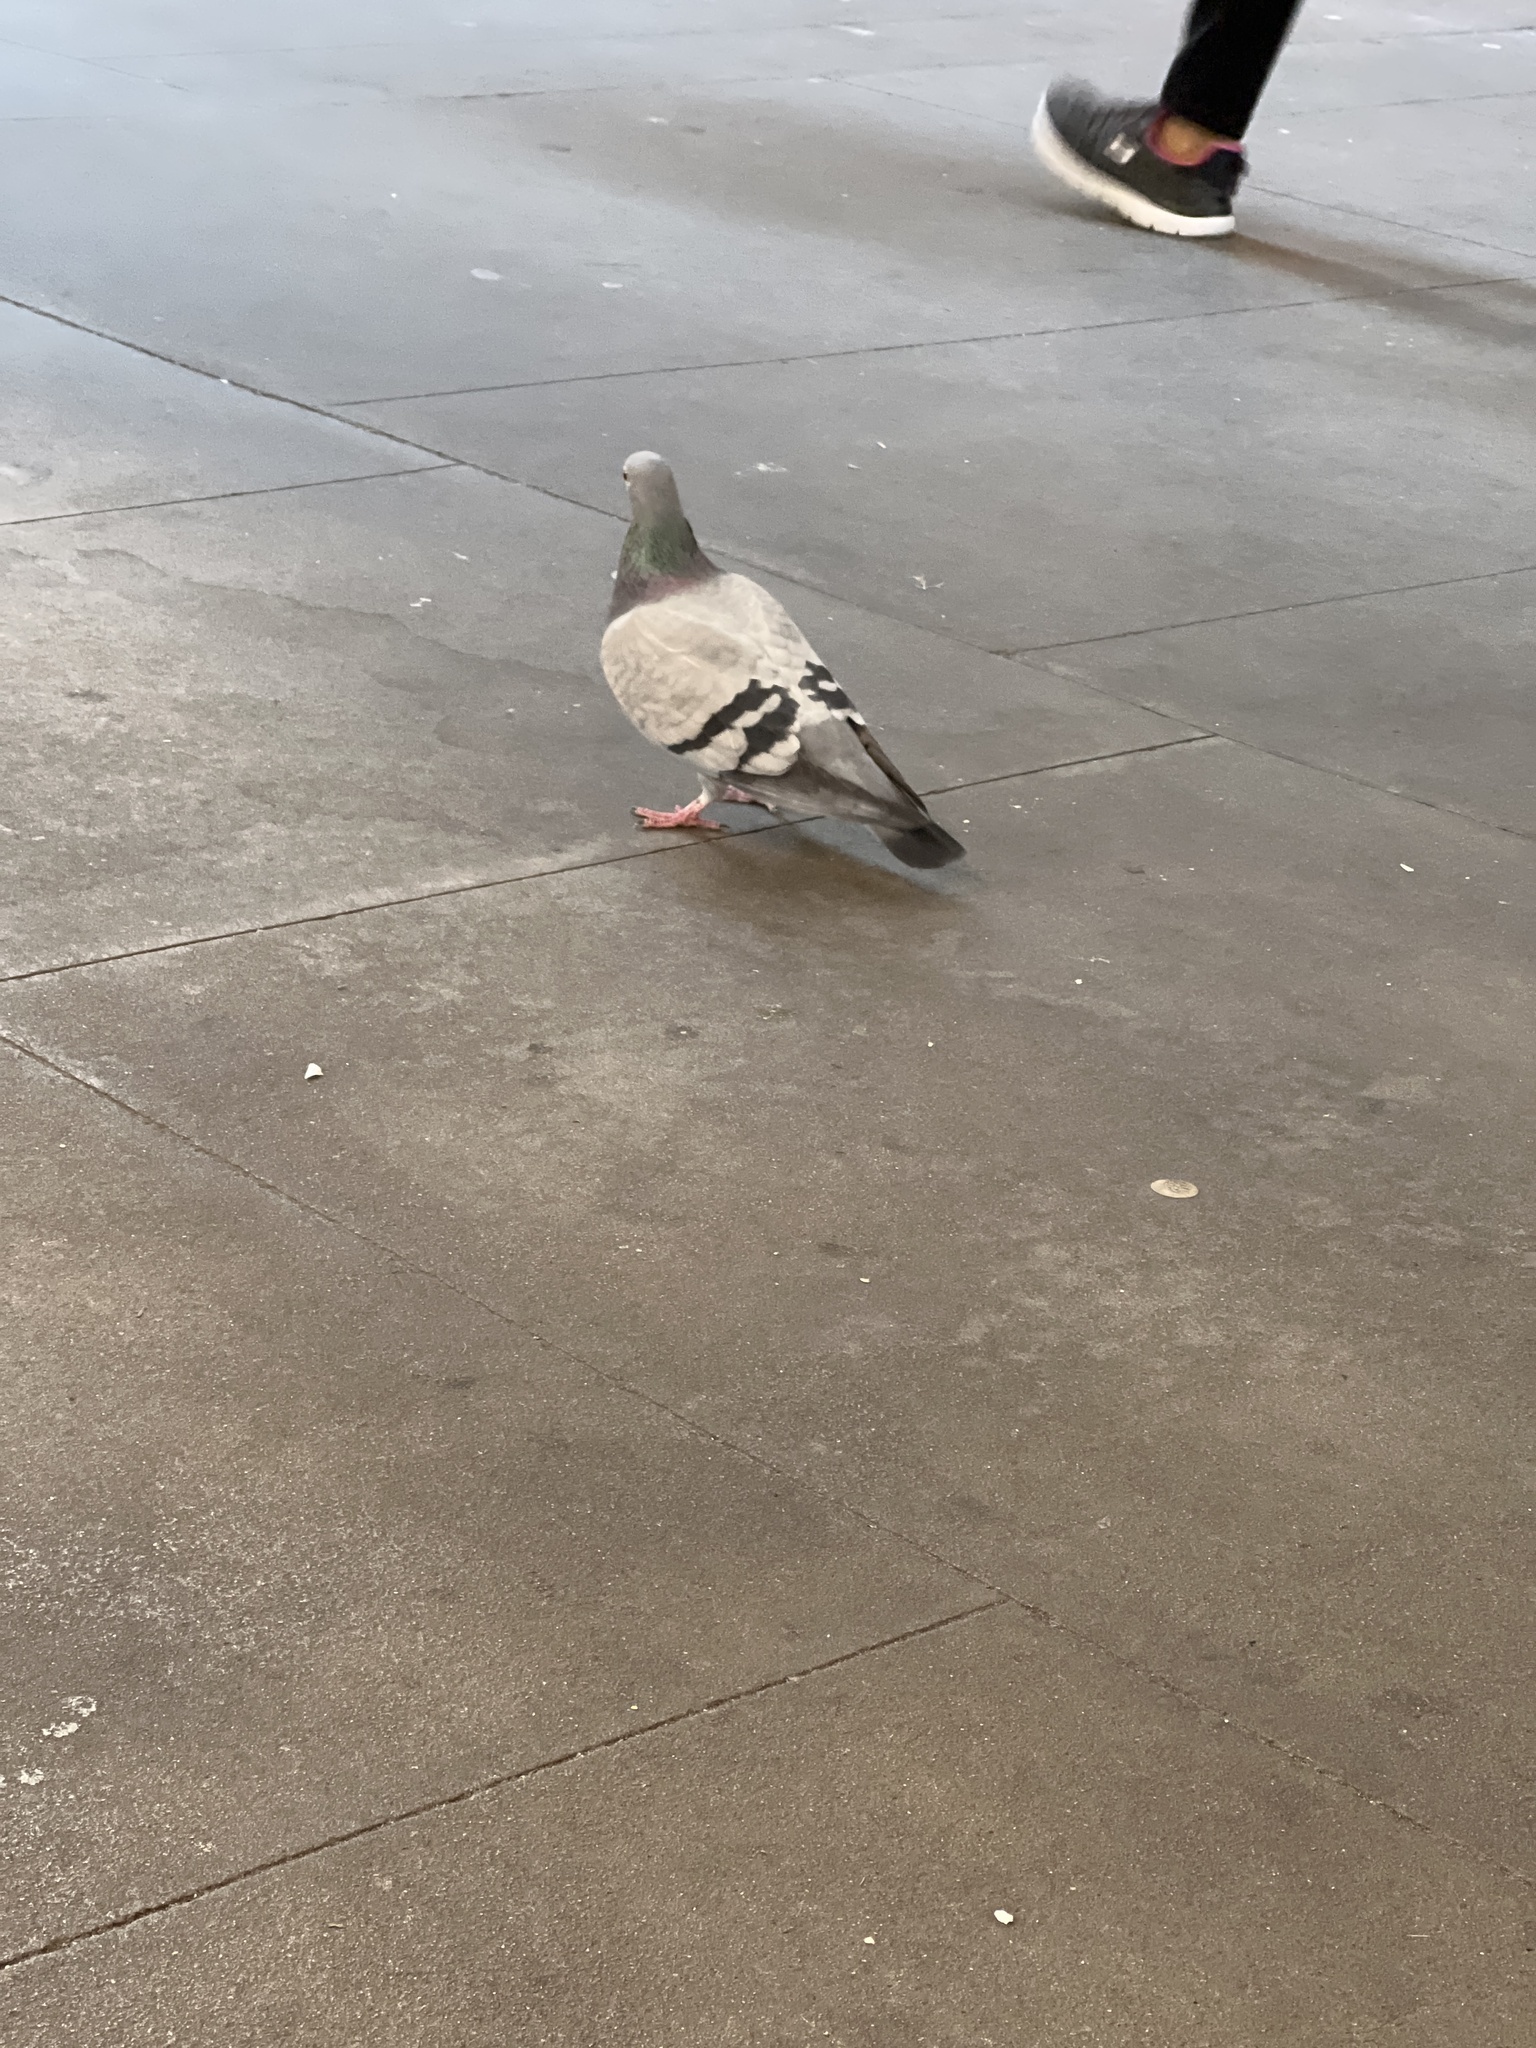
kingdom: Animalia
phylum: Chordata
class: Aves
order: Columbiformes
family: Columbidae
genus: Columba
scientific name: Columba livia
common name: Rock pigeon
